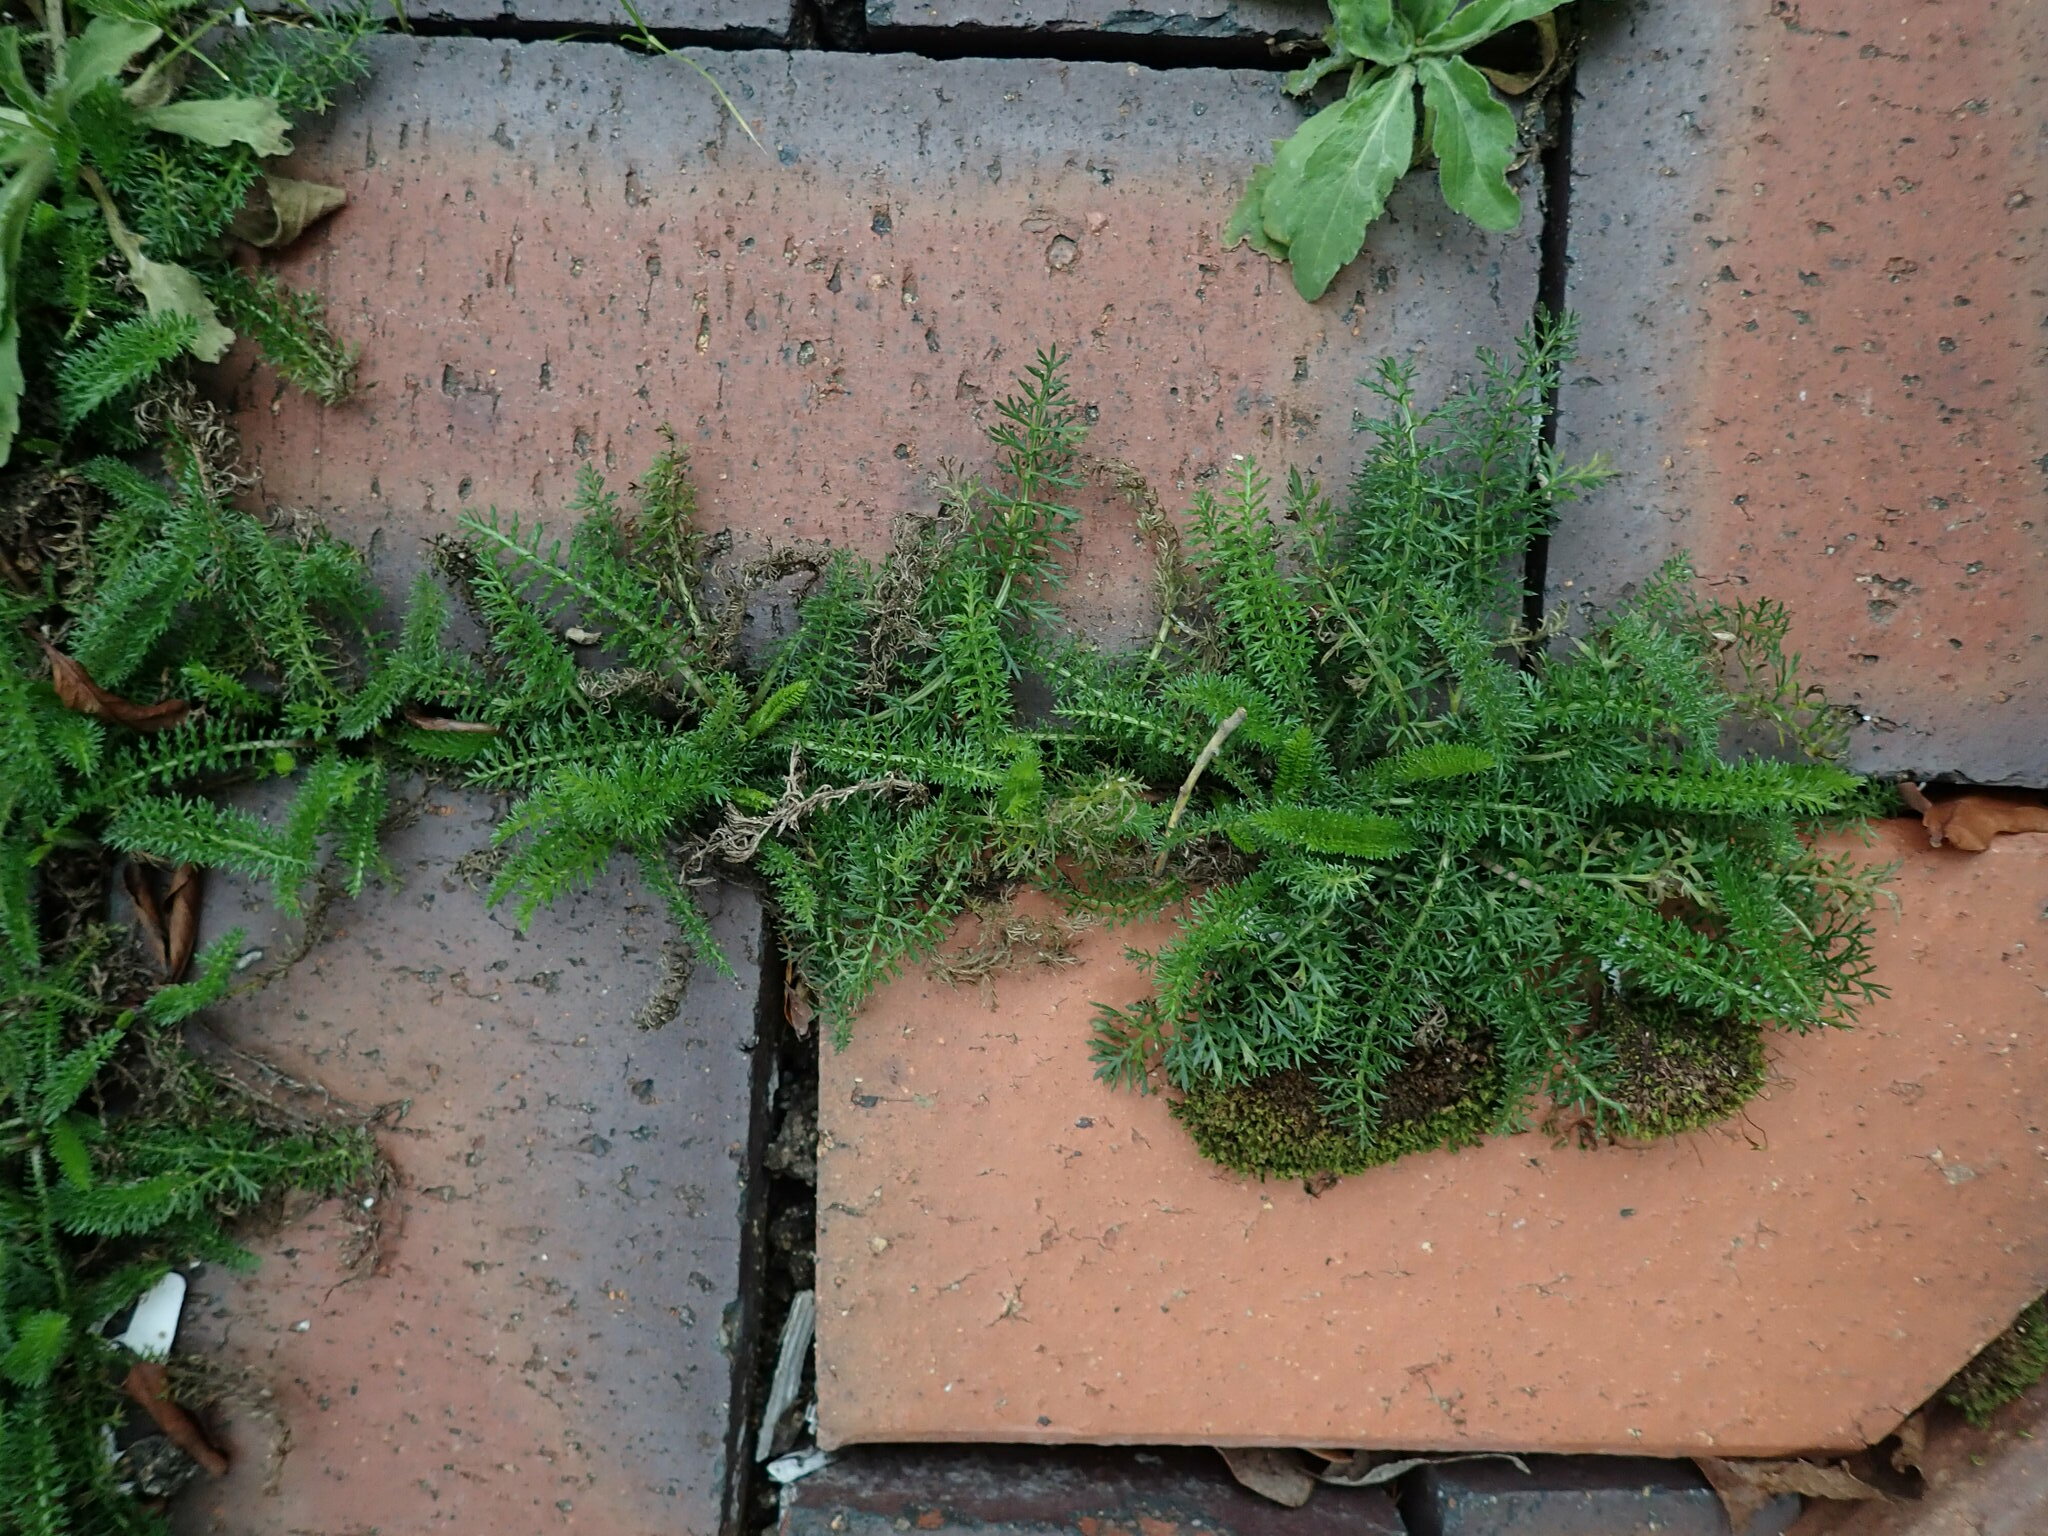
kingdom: Plantae
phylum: Tracheophyta
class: Magnoliopsida
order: Asterales
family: Asteraceae
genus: Achillea
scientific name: Achillea millefolium
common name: Yarrow
